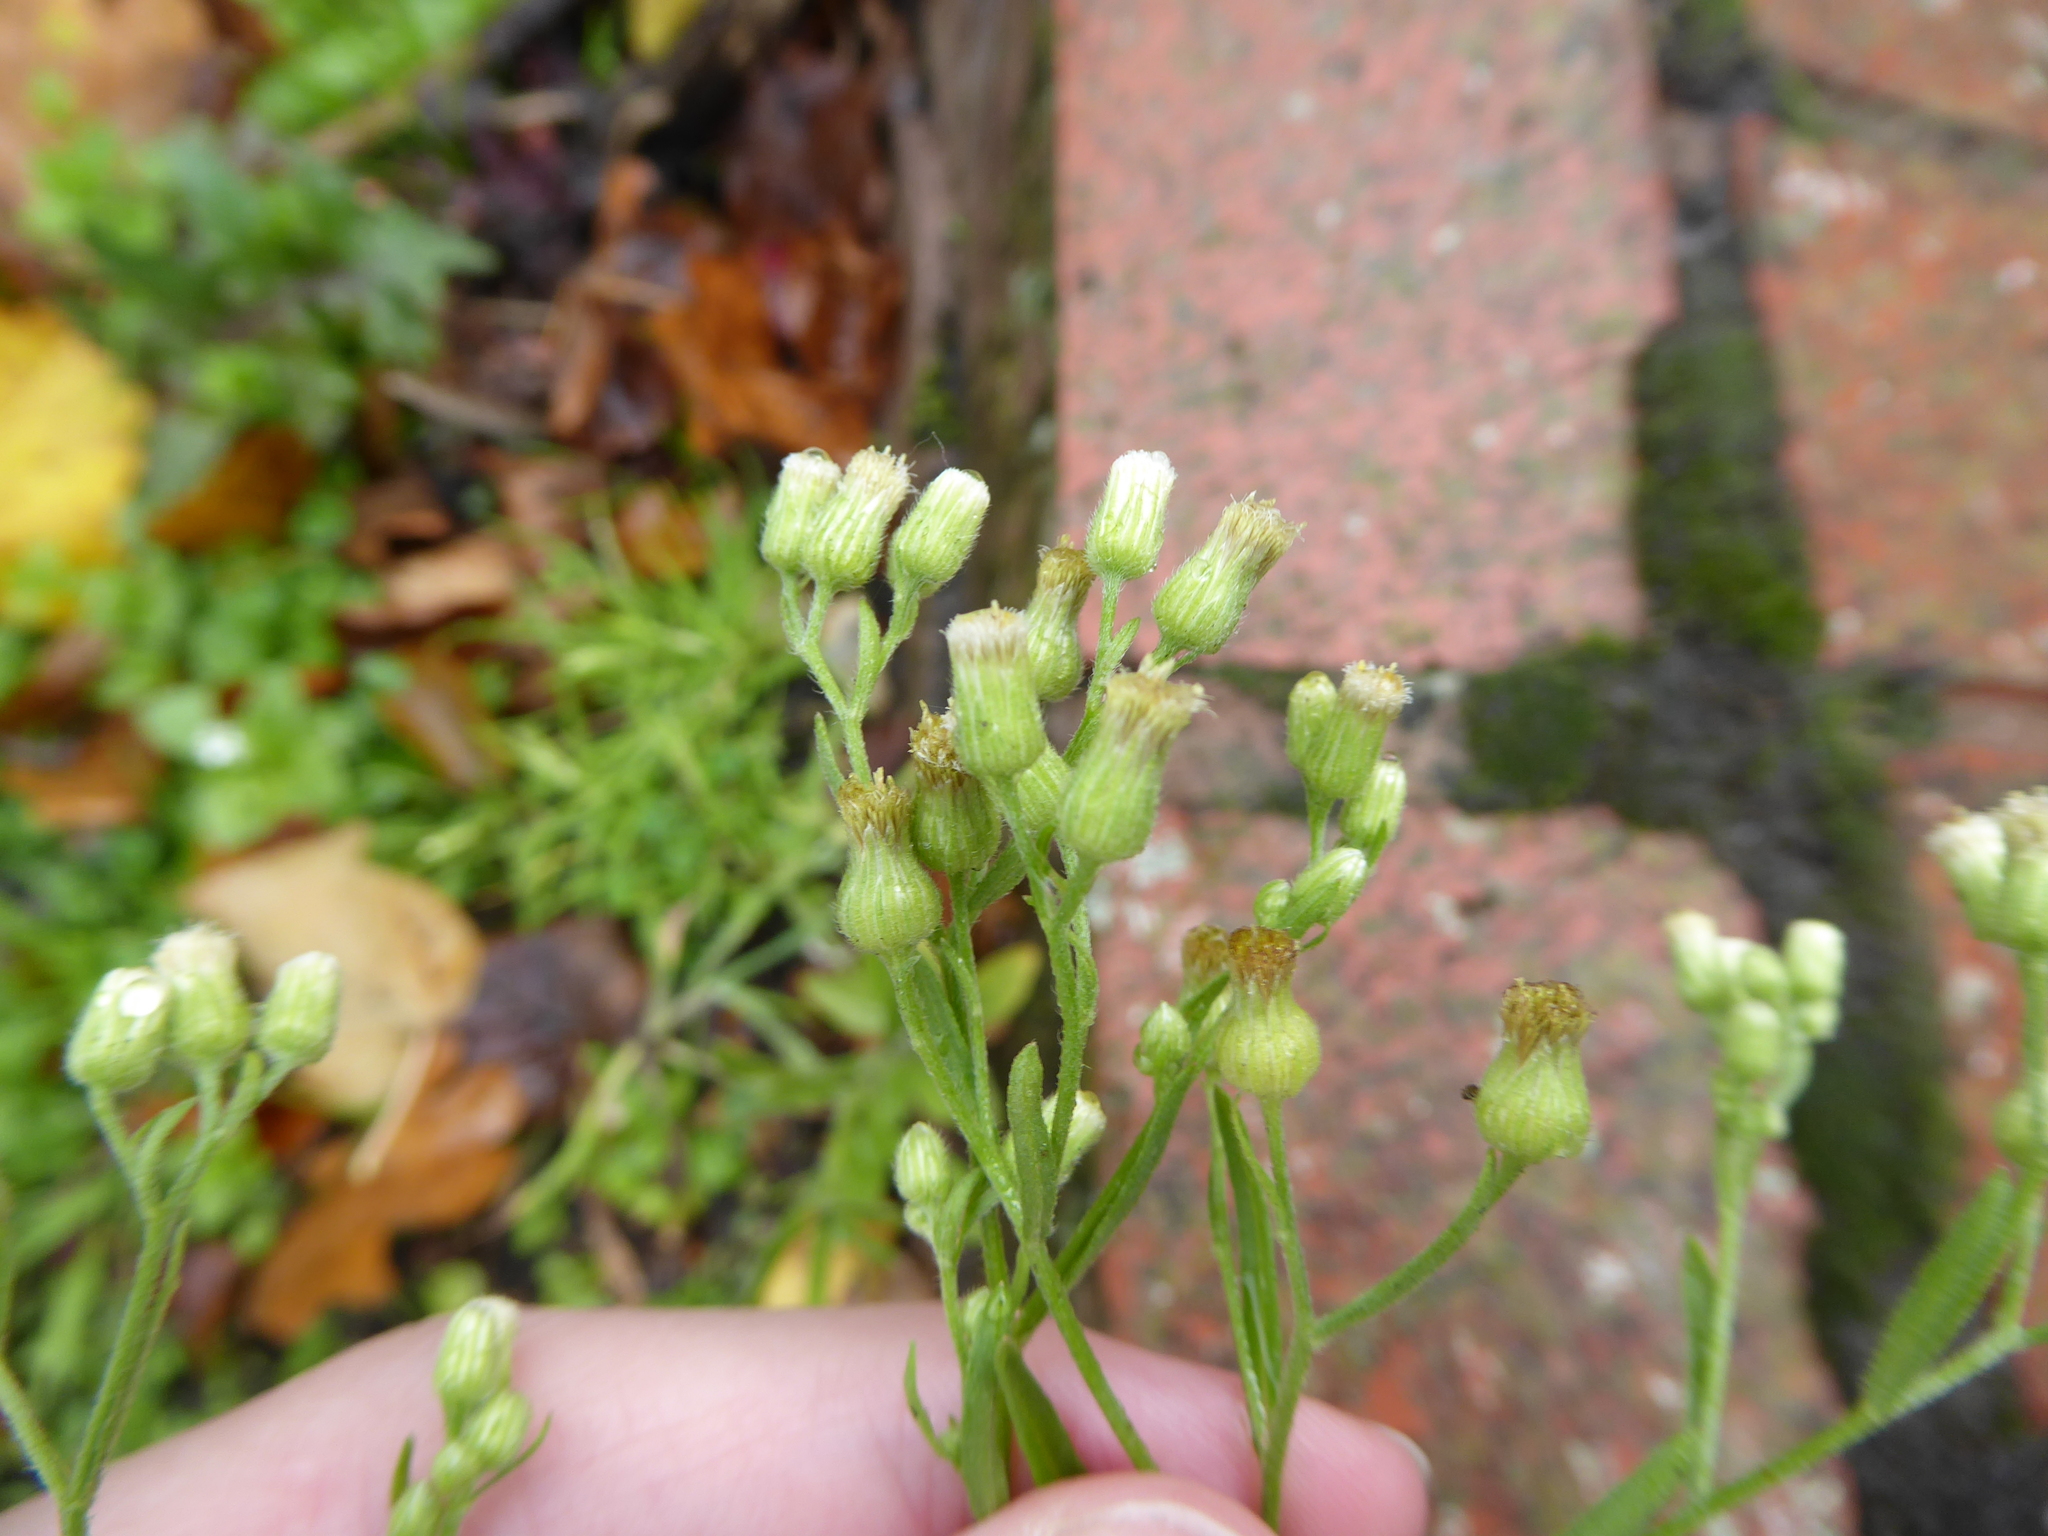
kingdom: Plantae
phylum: Tracheophyta
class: Magnoliopsida
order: Asterales
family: Asteraceae
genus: Erigeron
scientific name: Erigeron sumatrensis
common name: Daisy
